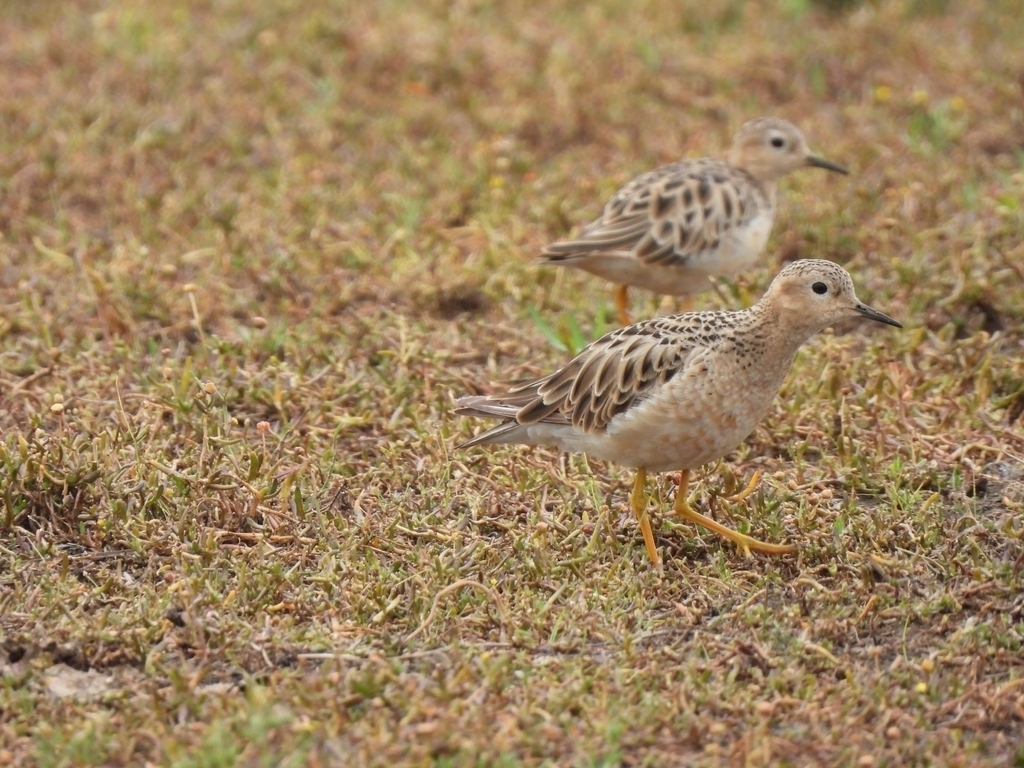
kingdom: Animalia
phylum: Chordata
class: Aves
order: Charadriiformes
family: Scolopacidae
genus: Calidris
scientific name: Calidris subruficollis
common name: Buff-breasted sandpiper
